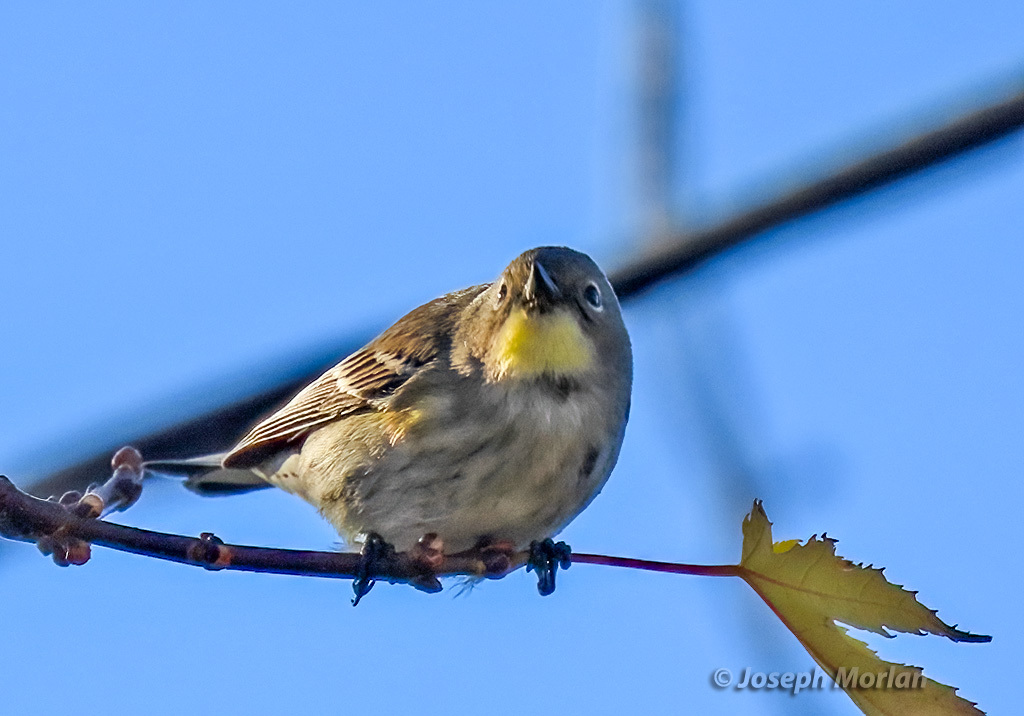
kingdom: Animalia
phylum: Chordata
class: Aves
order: Passeriformes
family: Parulidae
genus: Setophaga
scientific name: Setophaga coronata
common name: Myrtle warbler
